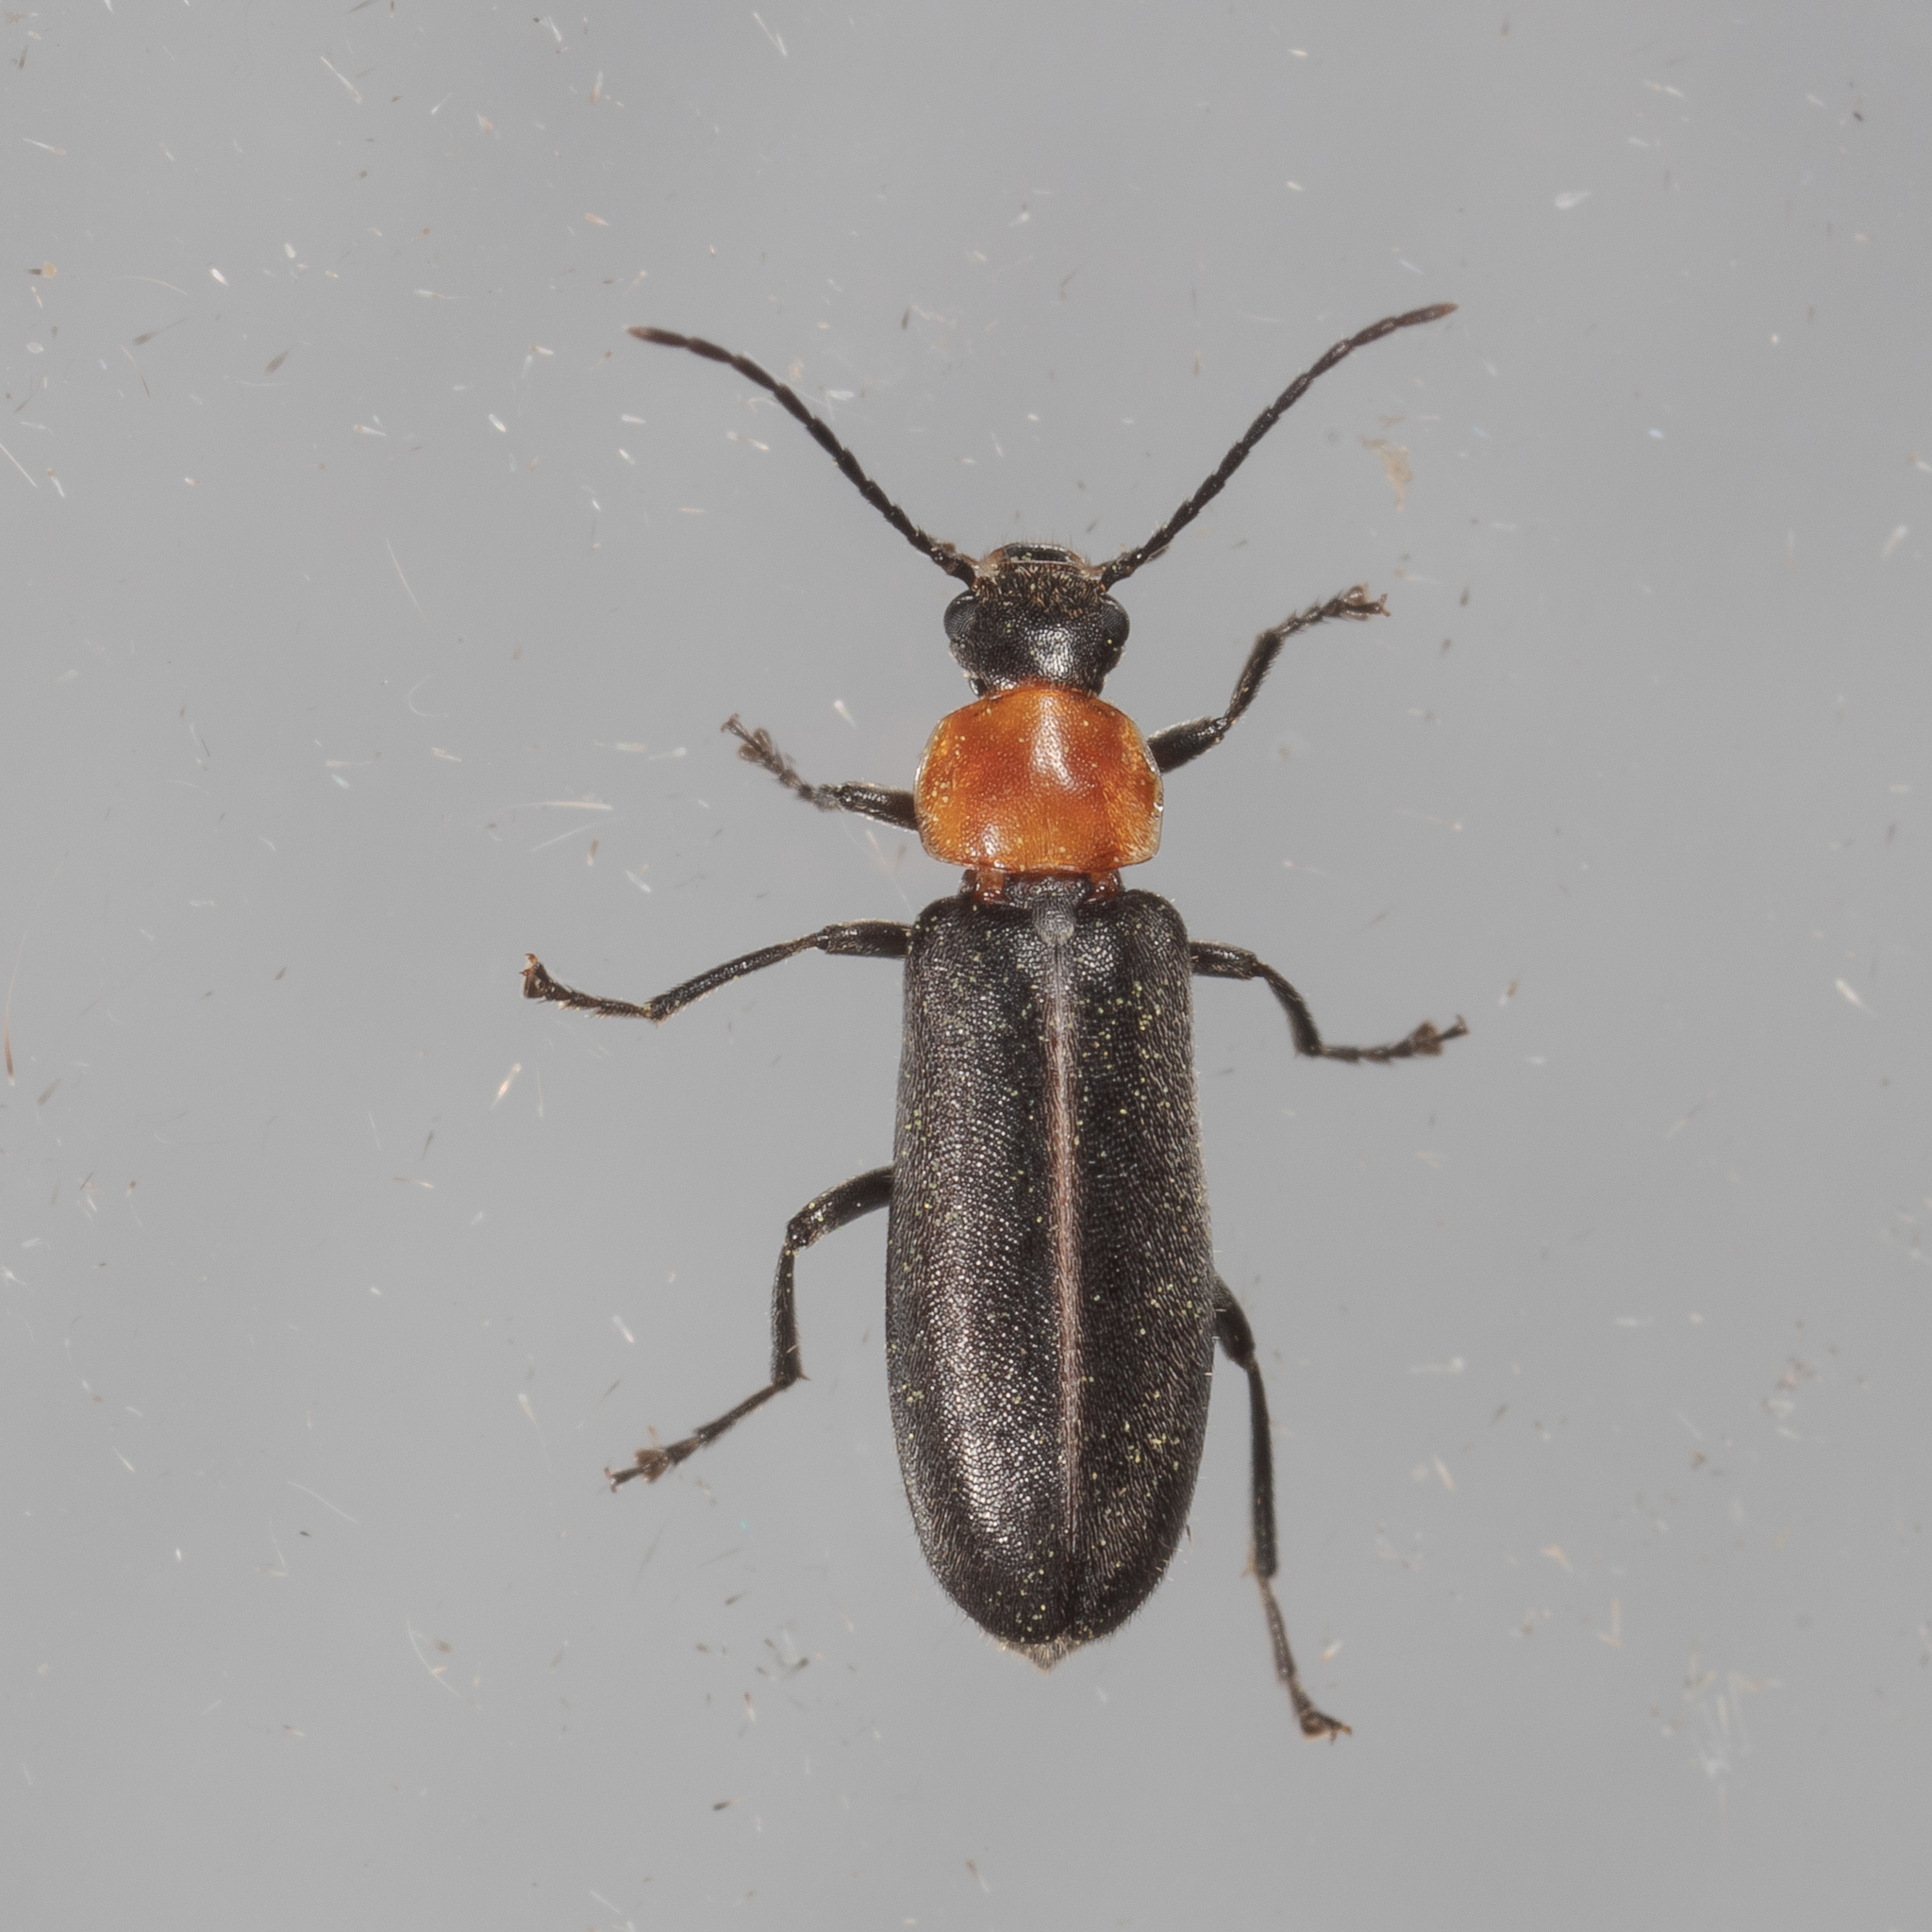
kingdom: Animalia
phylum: Arthropoda
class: Insecta
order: Coleoptera
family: Melandryidae
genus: Osphya
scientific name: Osphya varians
